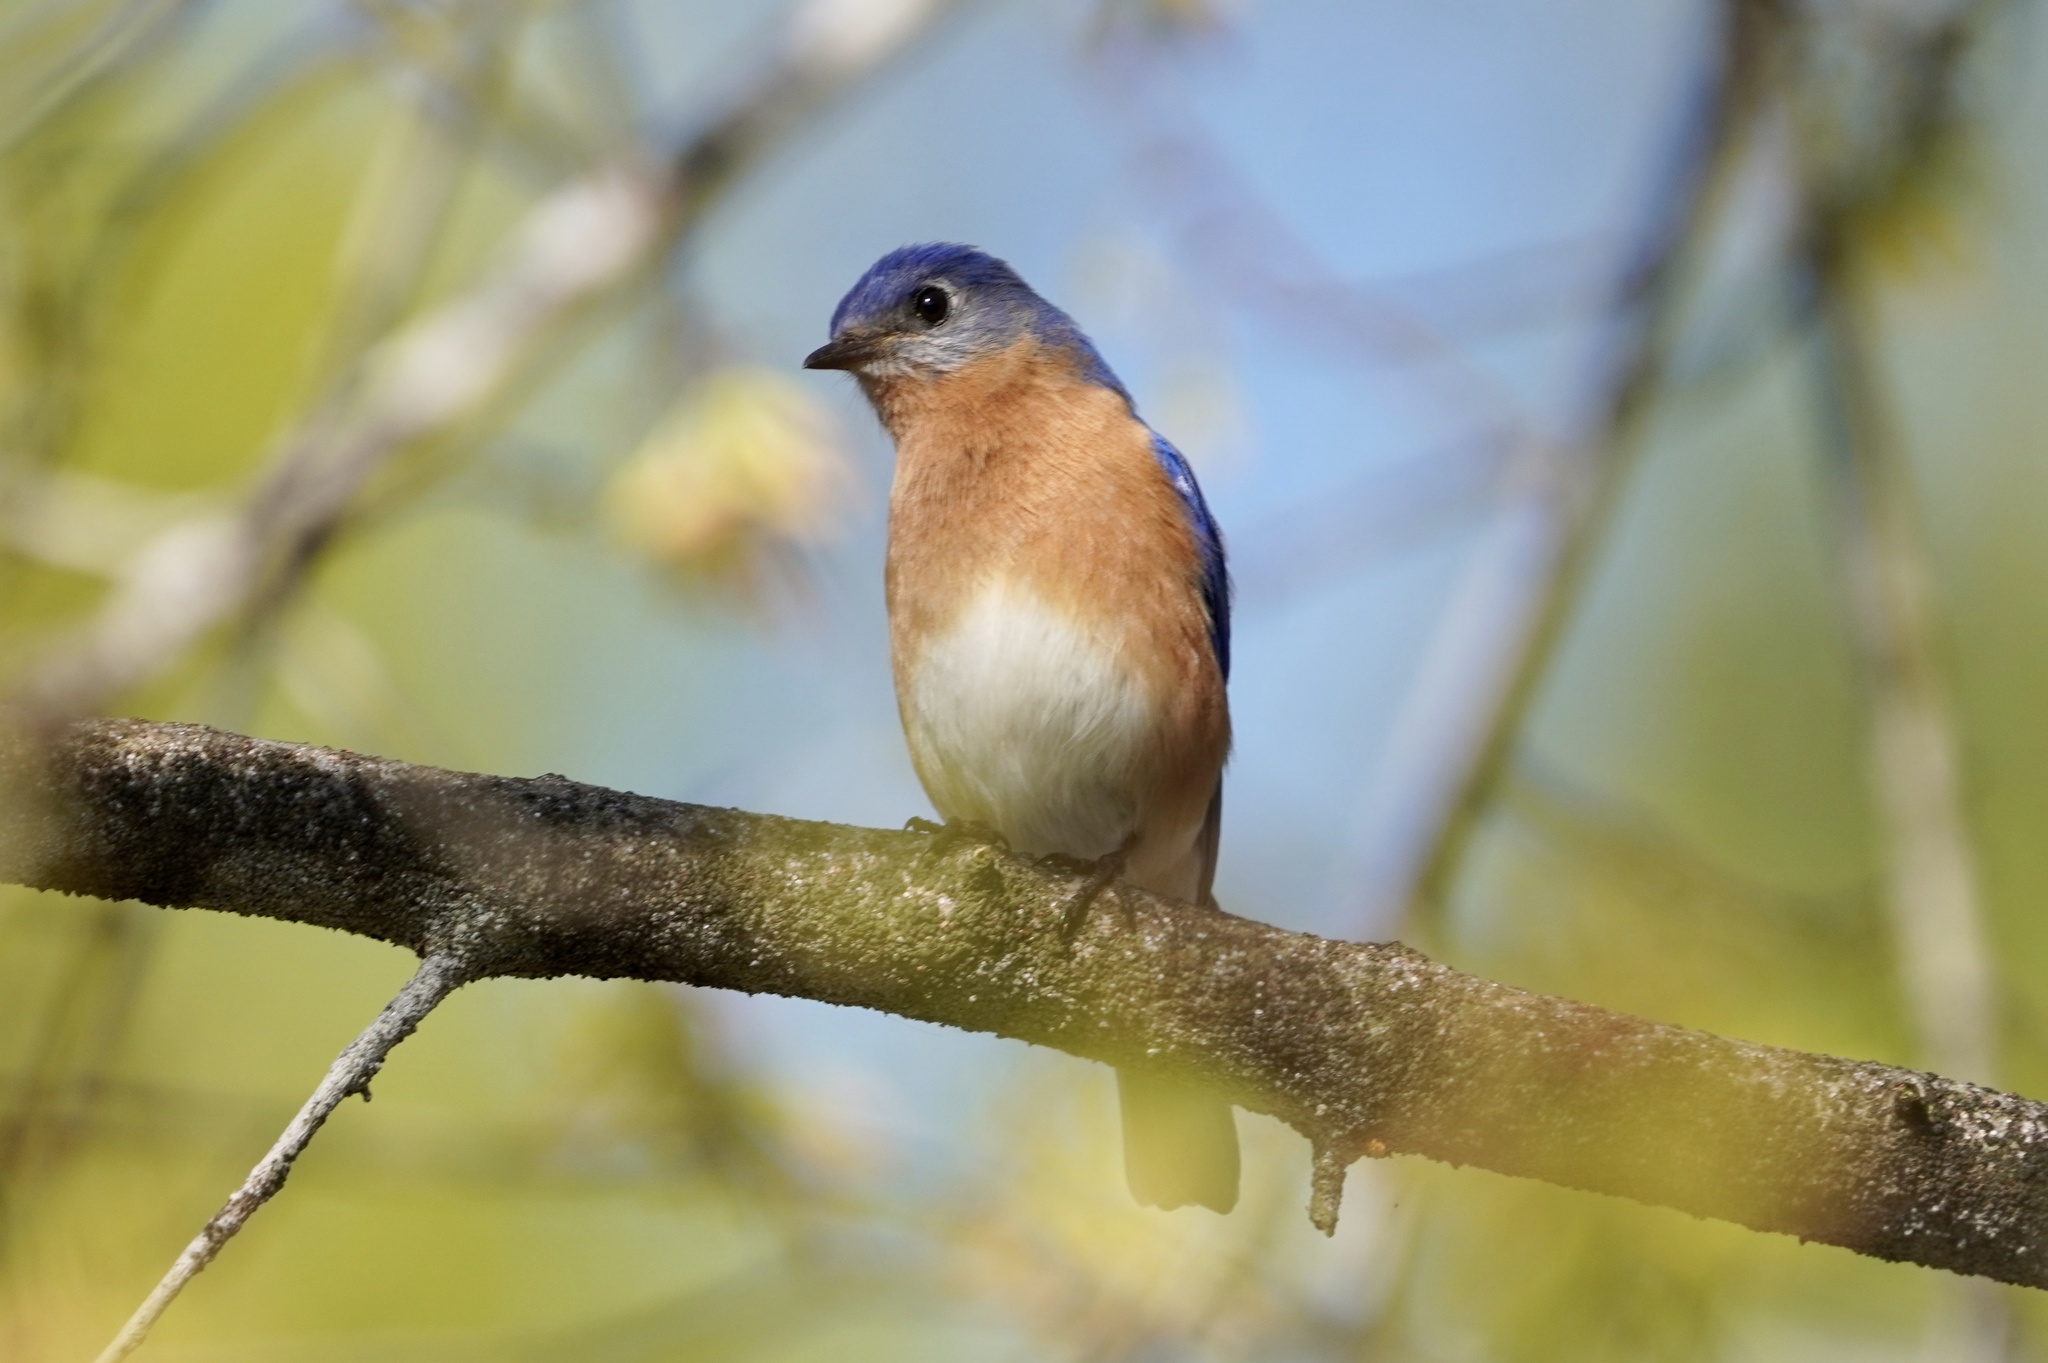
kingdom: Animalia
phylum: Chordata
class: Aves
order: Passeriformes
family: Turdidae
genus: Sialia
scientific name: Sialia sialis
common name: Eastern bluebird
